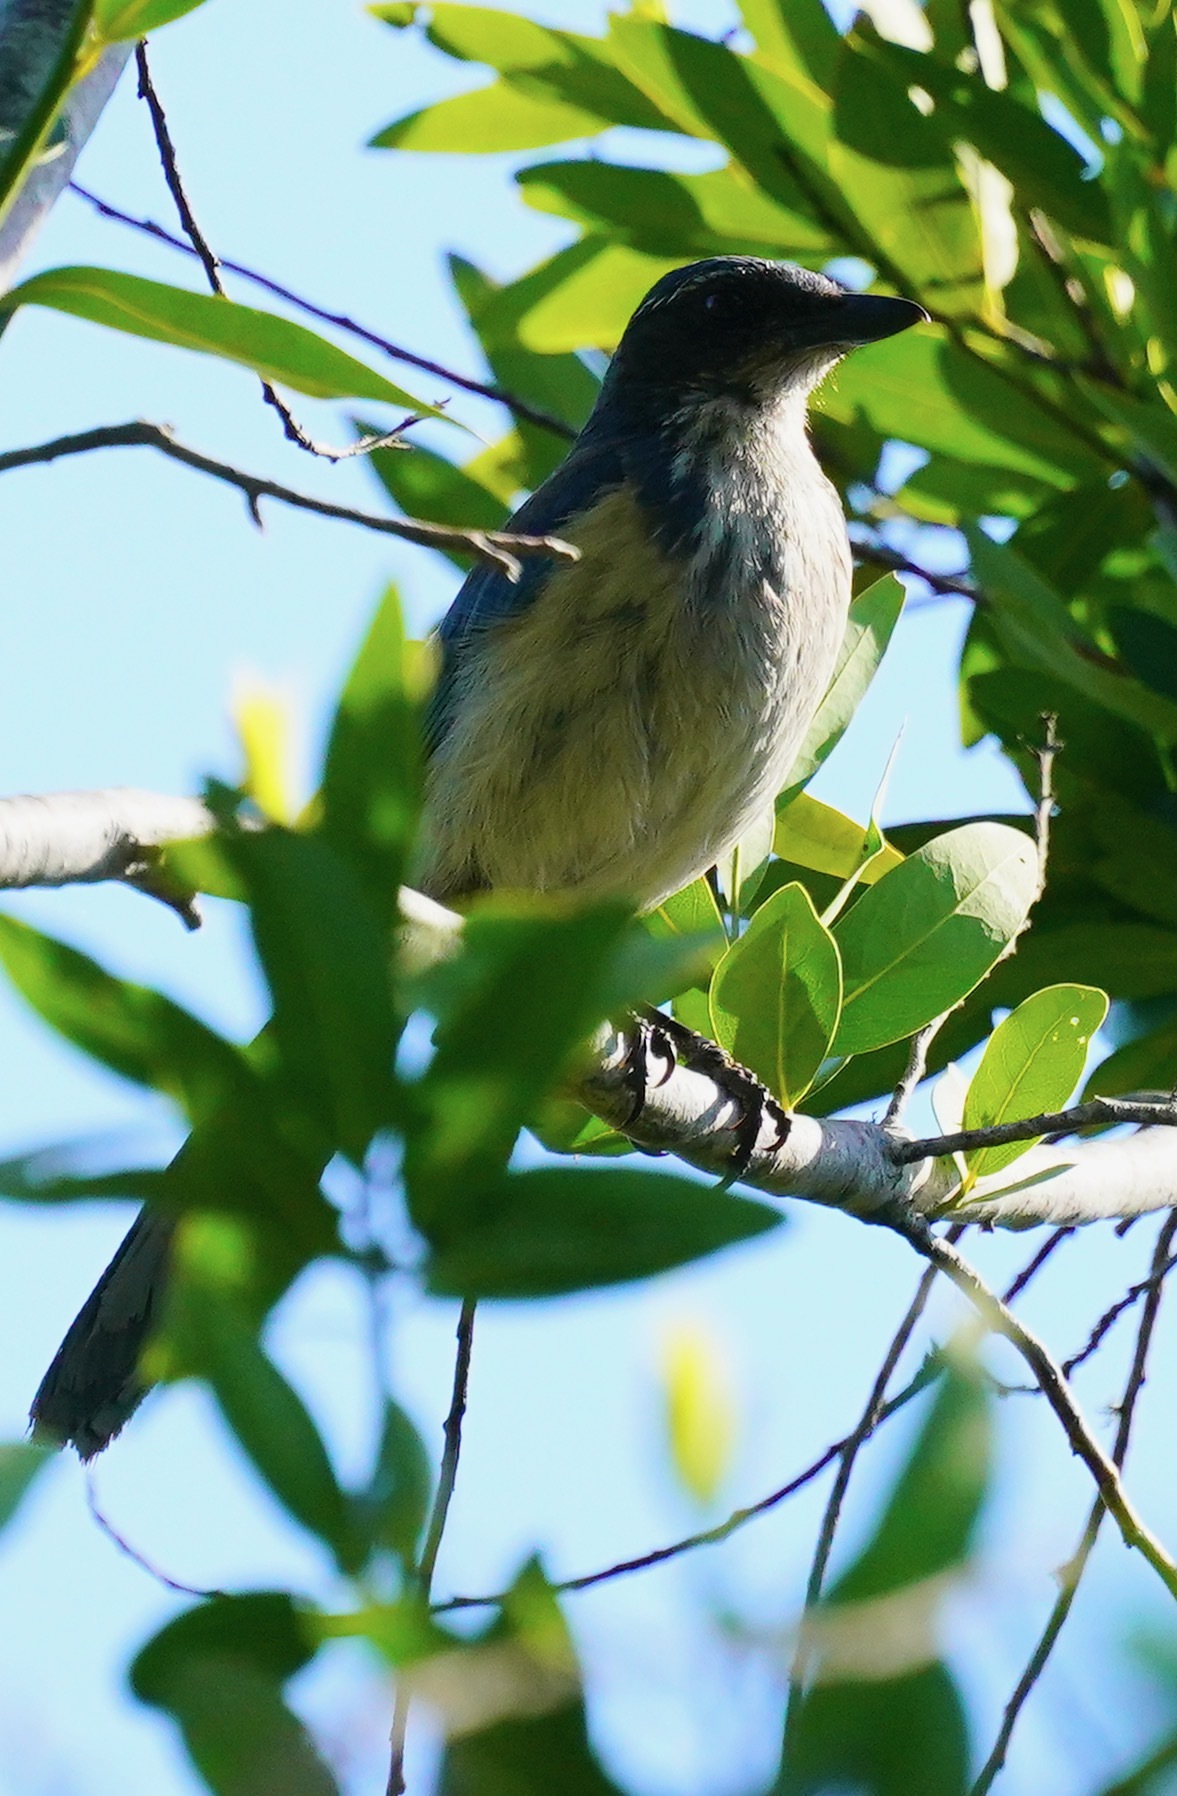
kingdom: Animalia
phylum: Chordata
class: Aves
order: Passeriformes
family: Corvidae
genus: Aphelocoma
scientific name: Aphelocoma californica
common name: California scrub-jay
